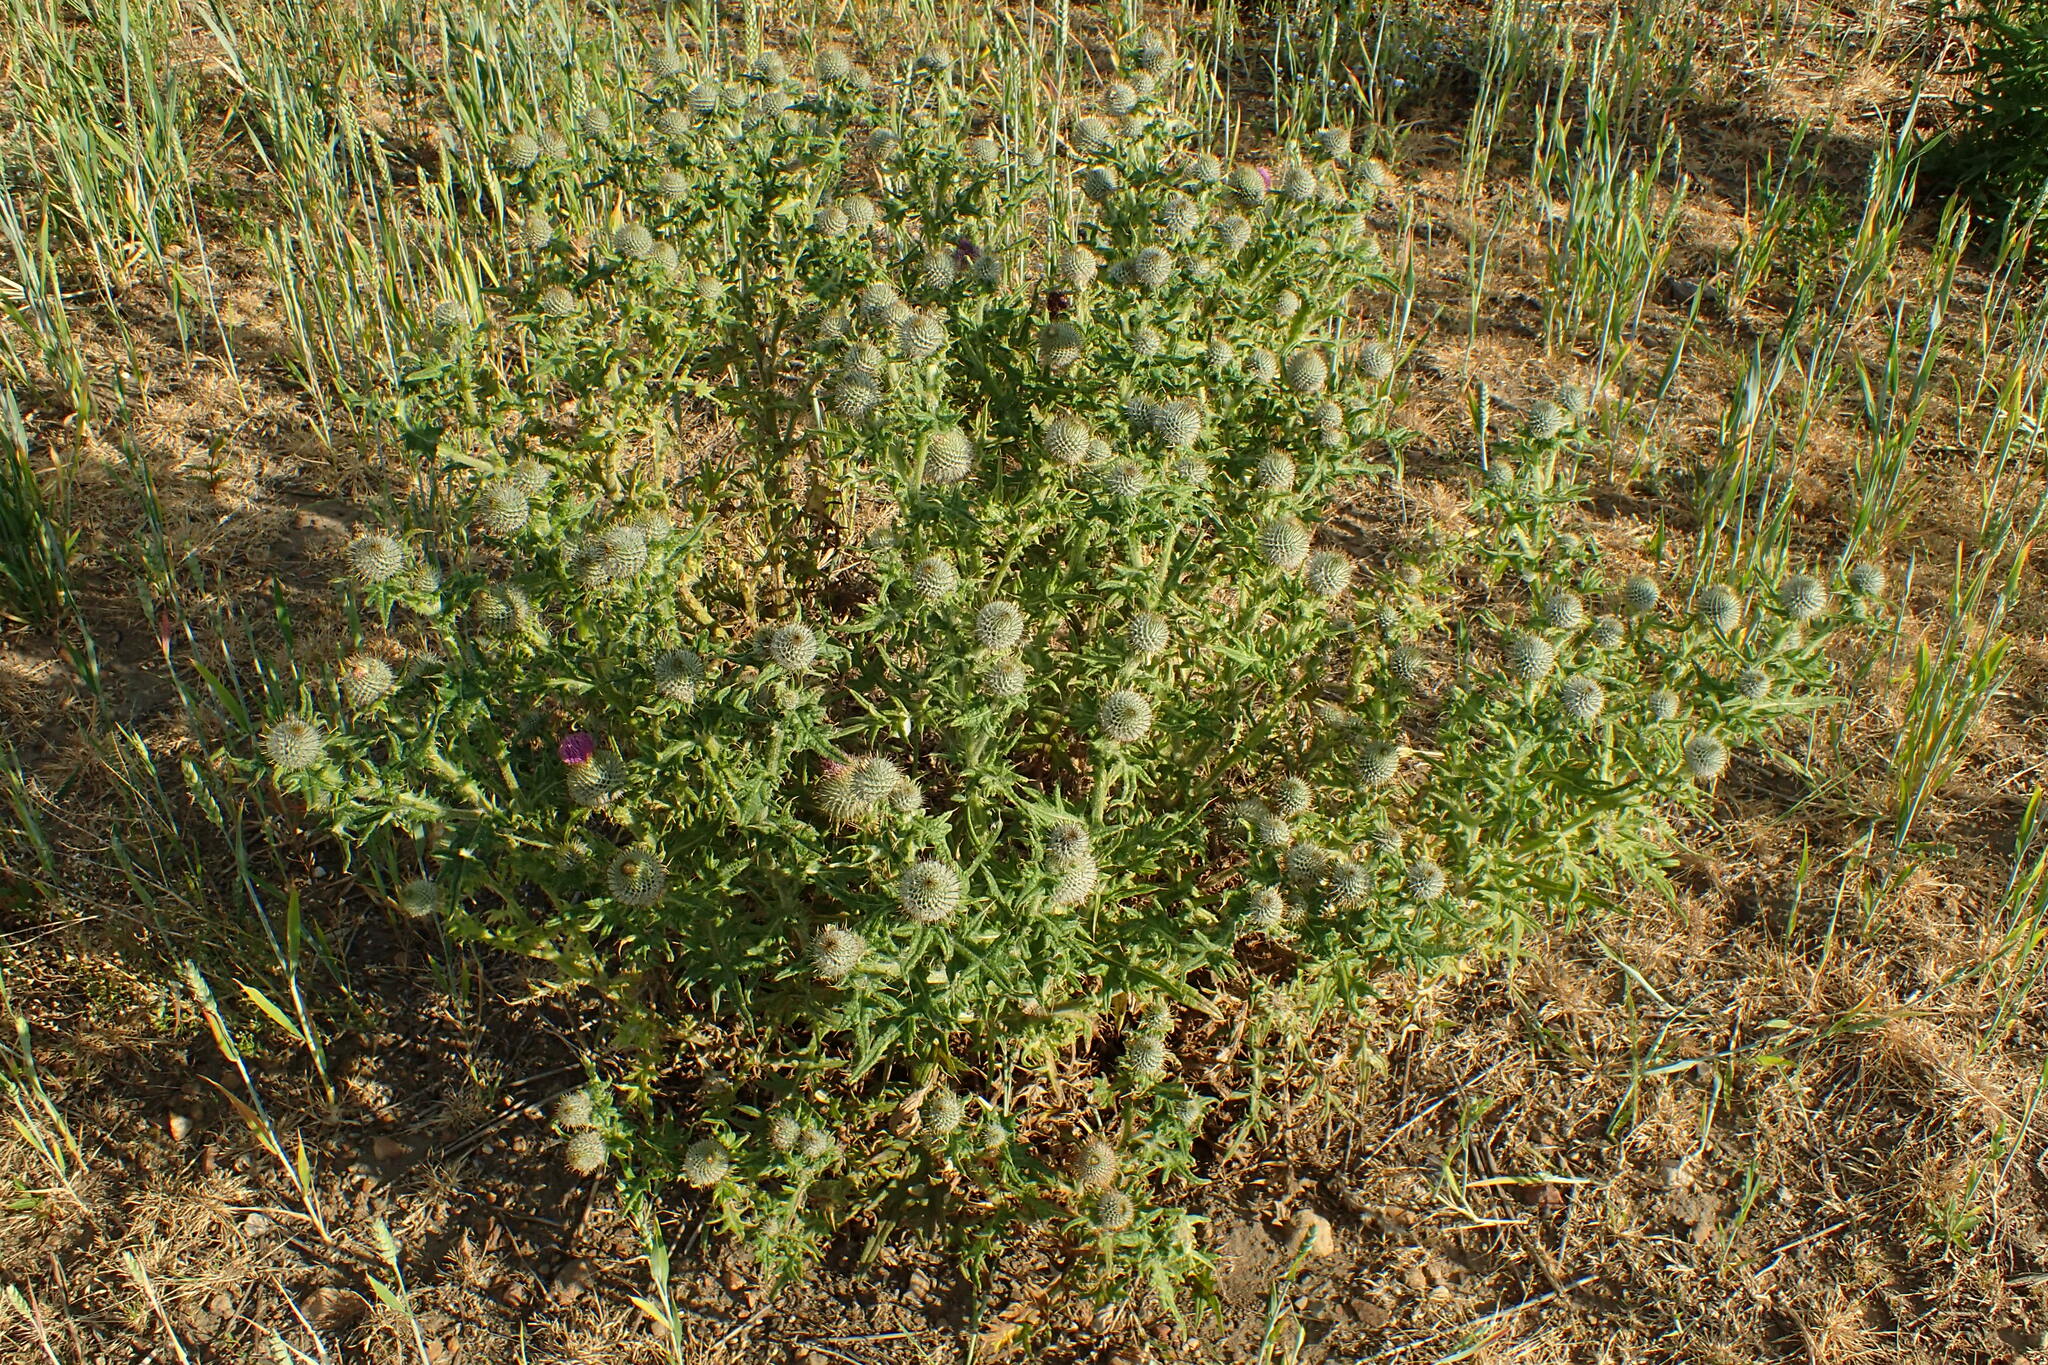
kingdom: Plantae
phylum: Tracheophyta
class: Magnoliopsida
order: Asterales
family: Asteraceae
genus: Cirsium
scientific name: Cirsium vulgare
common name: Bull thistle
